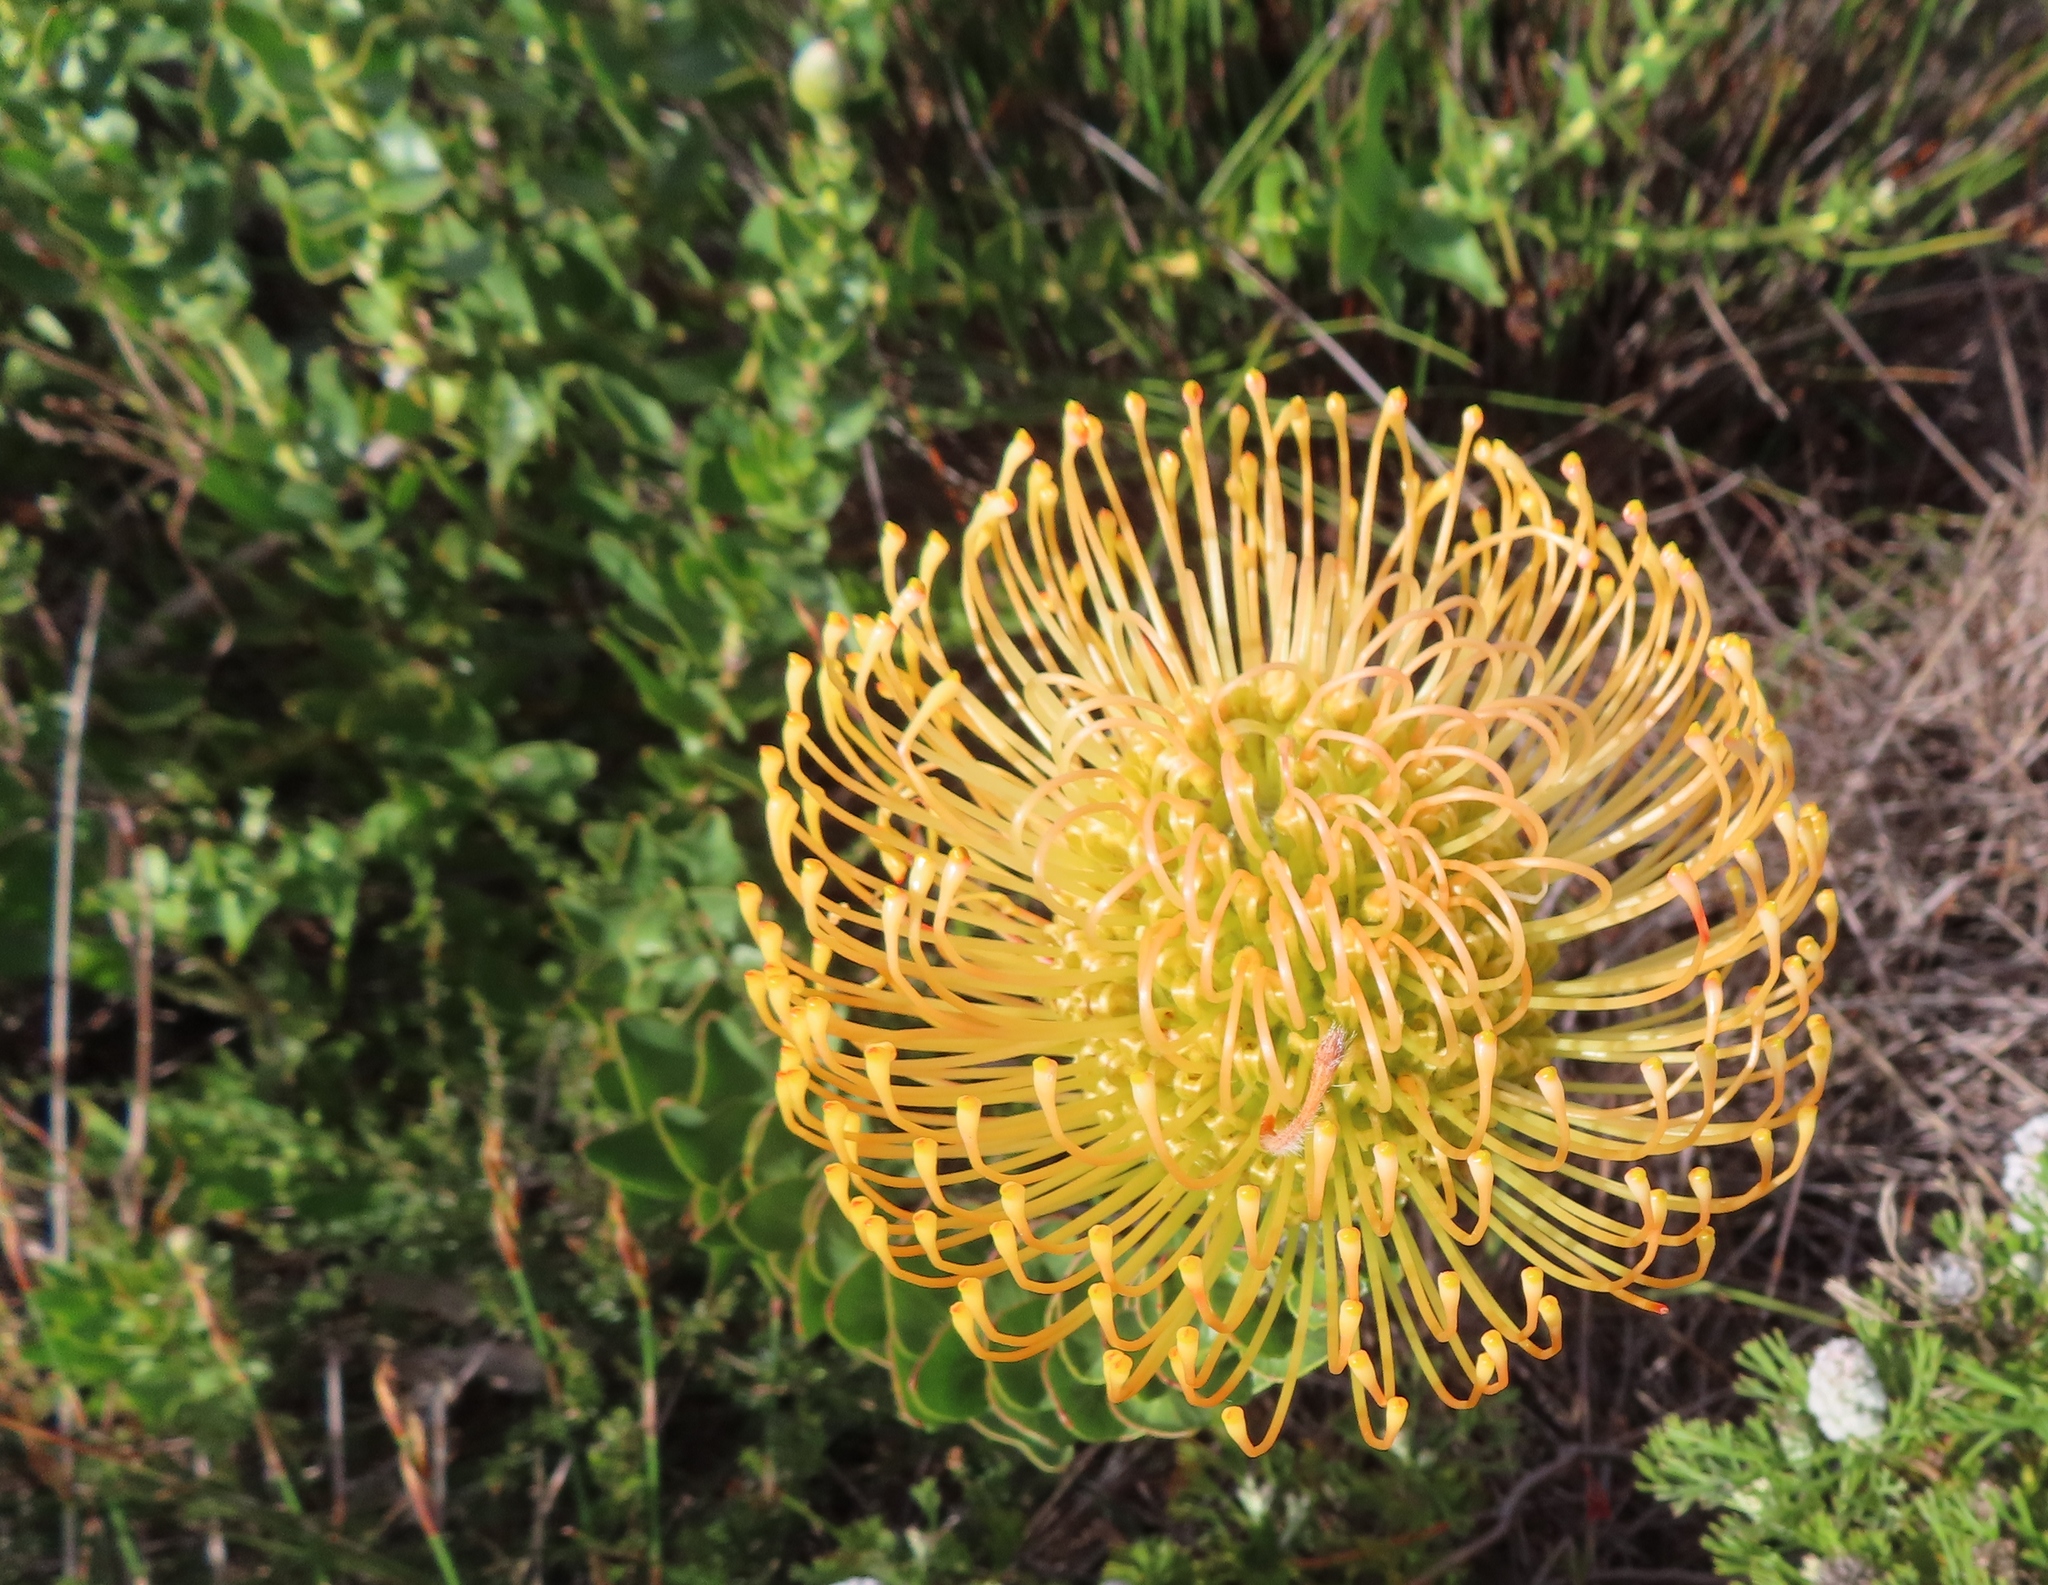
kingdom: Plantae
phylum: Tracheophyta
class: Magnoliopsida
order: Proteales
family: Proteaceae
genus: Leucospermum
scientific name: Leucospermum cordifolium
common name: Red pincushion-protea
